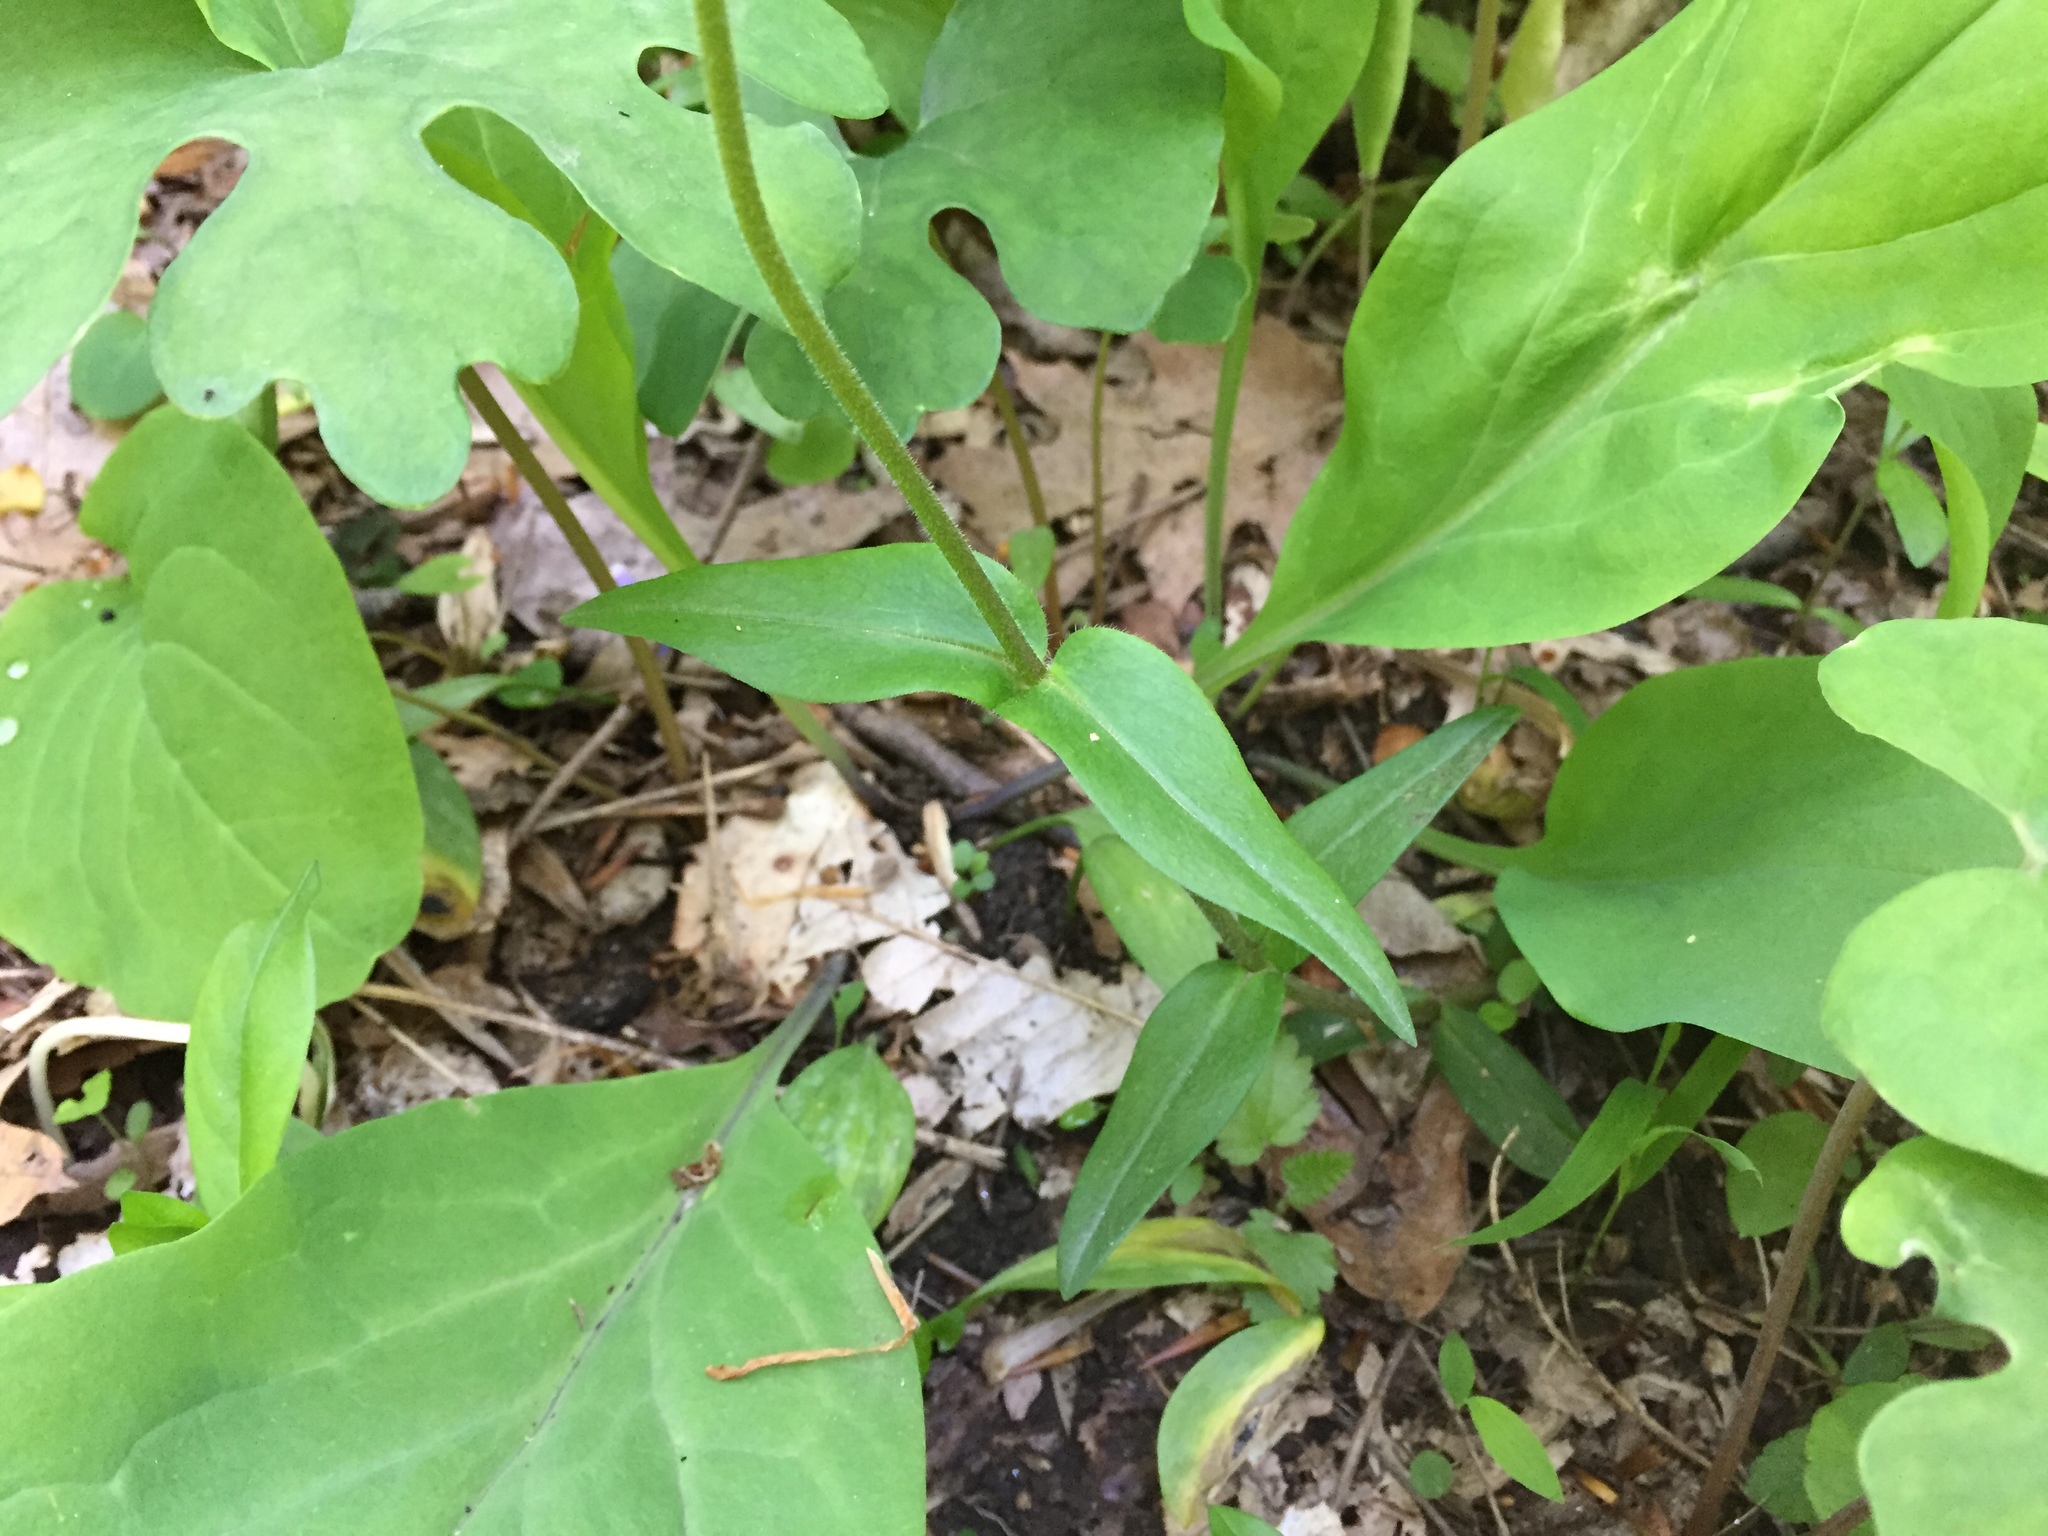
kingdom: Plantae
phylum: Tracheophyta
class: Magnoliopsida
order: Ericales
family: Polemoniaceae
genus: Phlox
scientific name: Phlox divaricata
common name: Blue phlox
